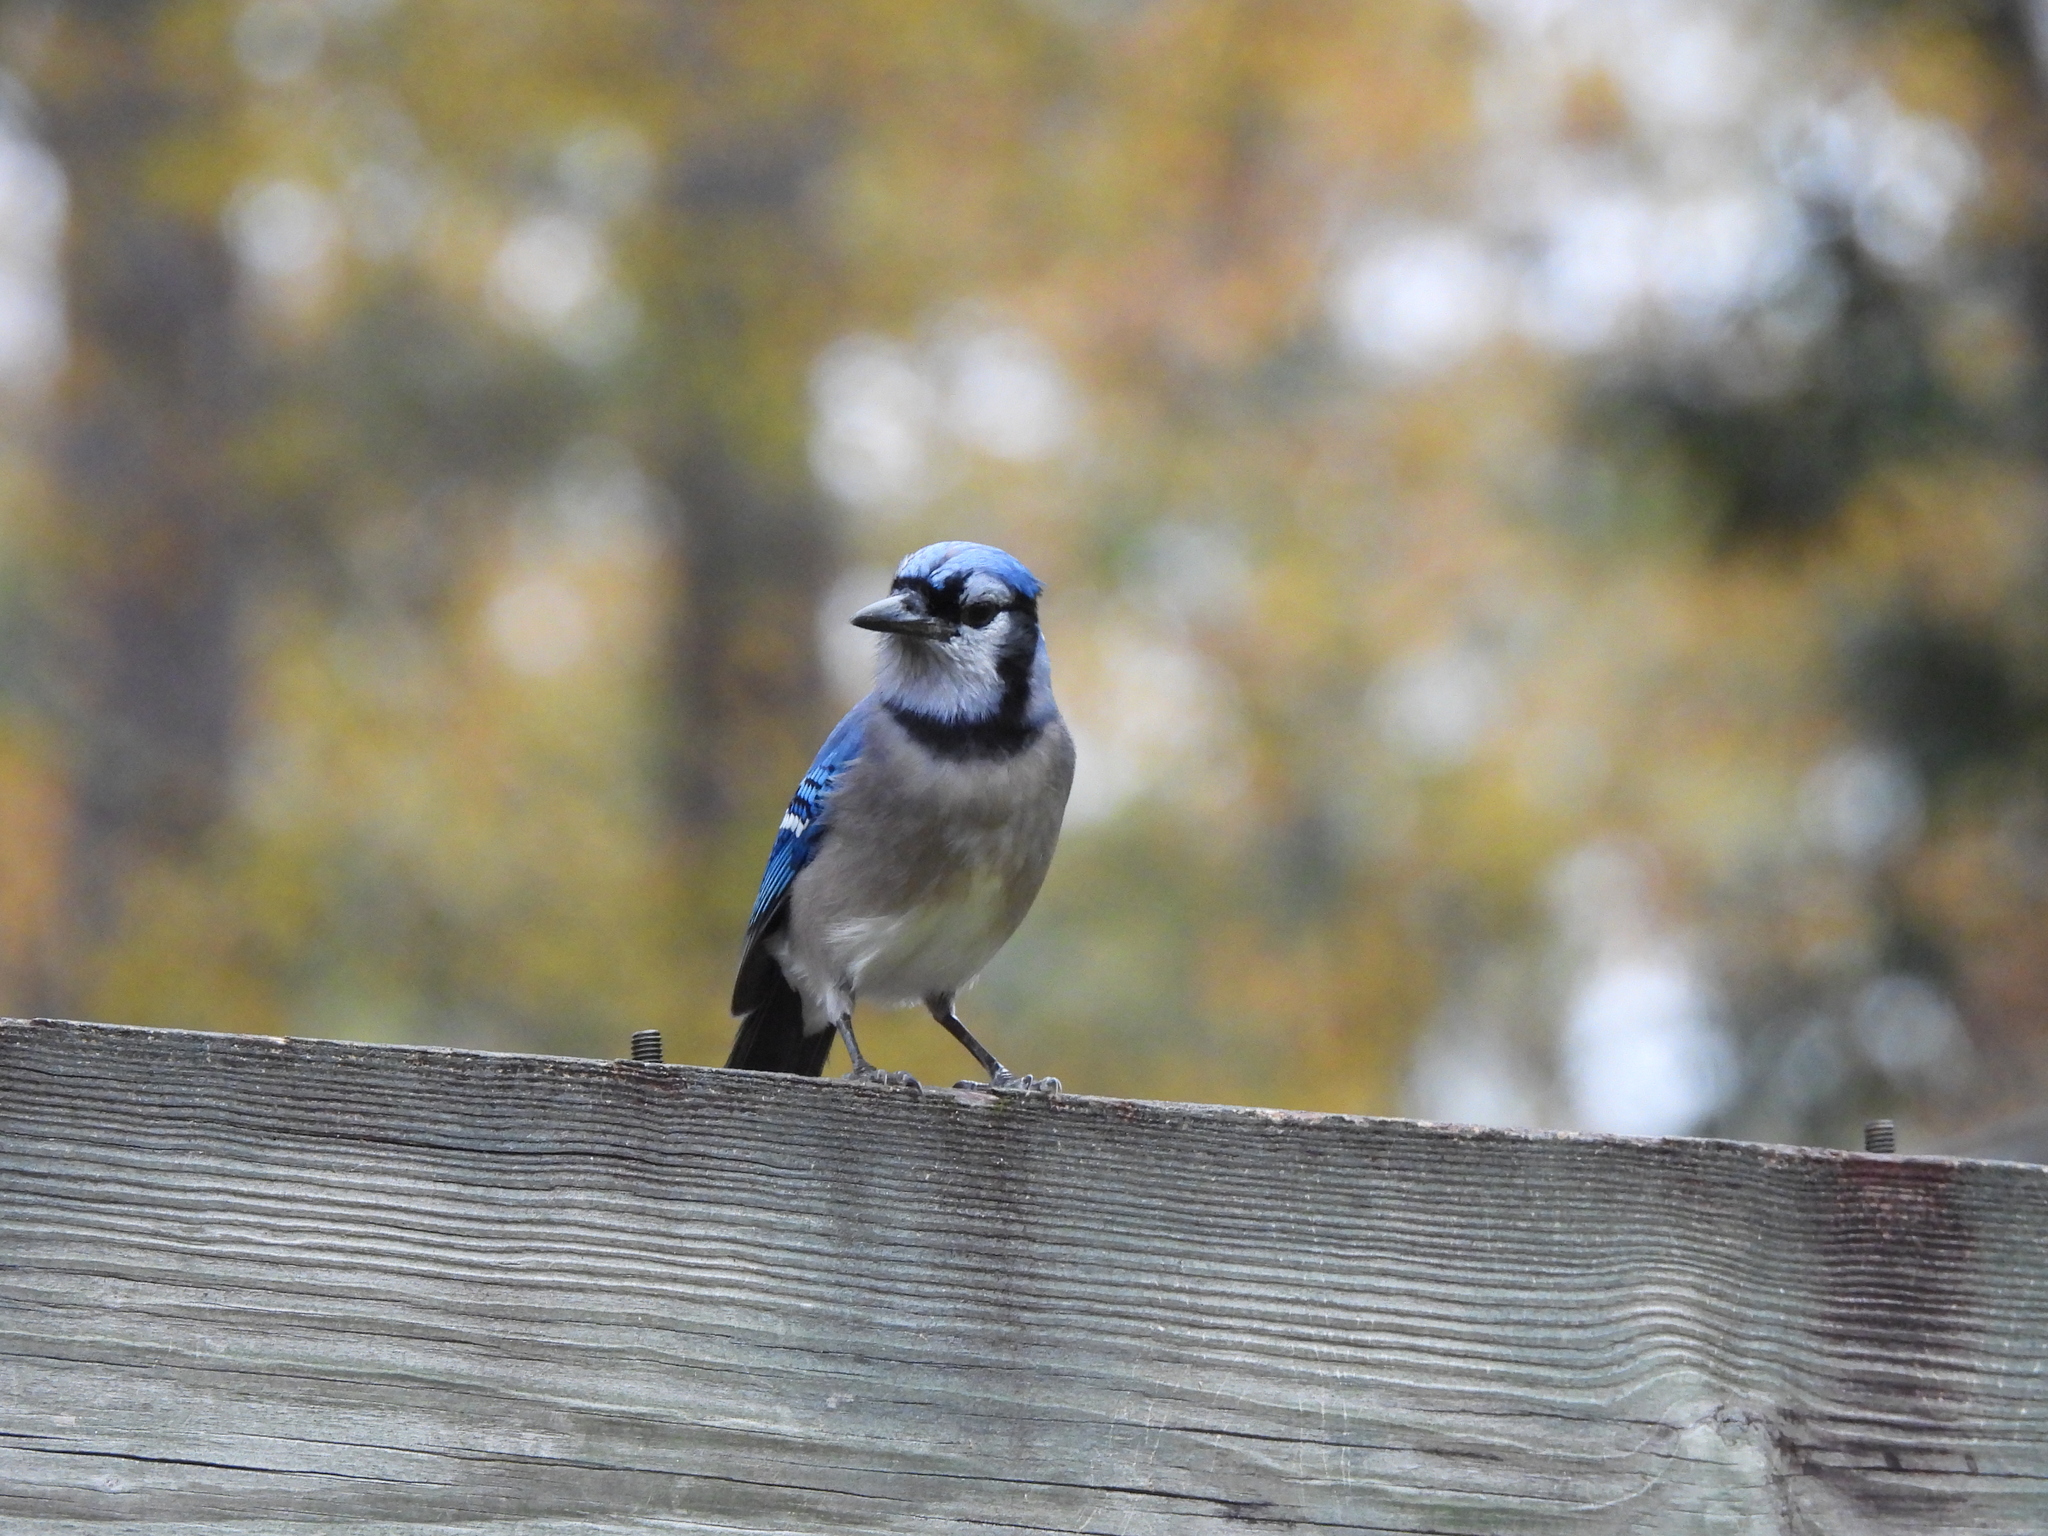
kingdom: Animalia
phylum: Chordata
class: Aves
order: Passeriformes
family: Corvidae
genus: Cyanocitta
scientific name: Cyanocitta cristata
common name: Blue jay
